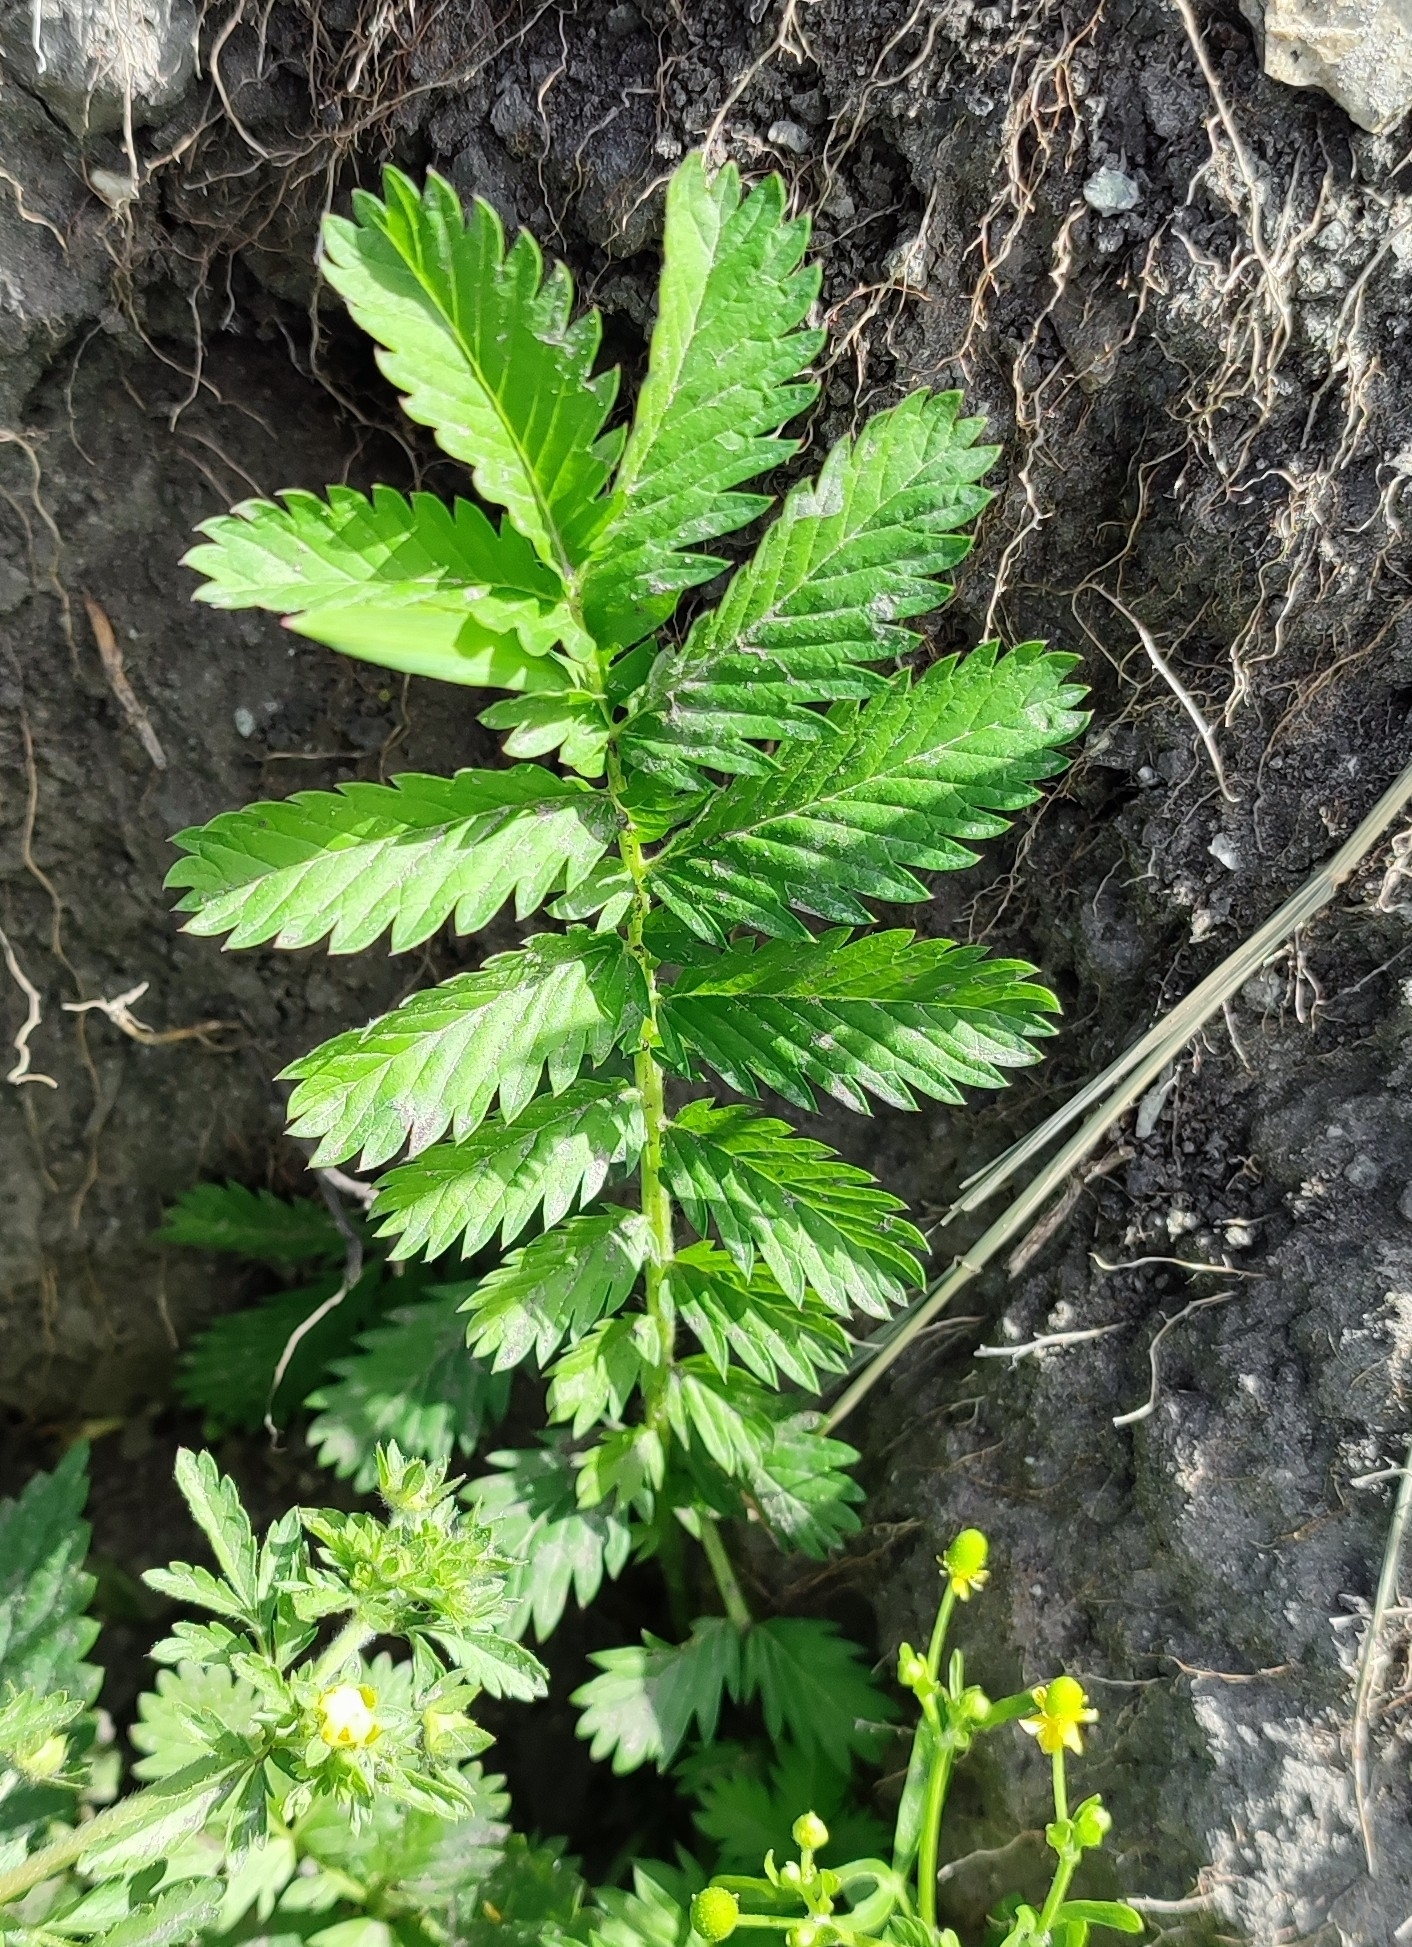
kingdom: Plantae
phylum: Tracheophyta
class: Magnoliopsida
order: Rosales
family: Rosaceae
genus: Argentina
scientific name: Argentina anserina
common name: Common silverweed
